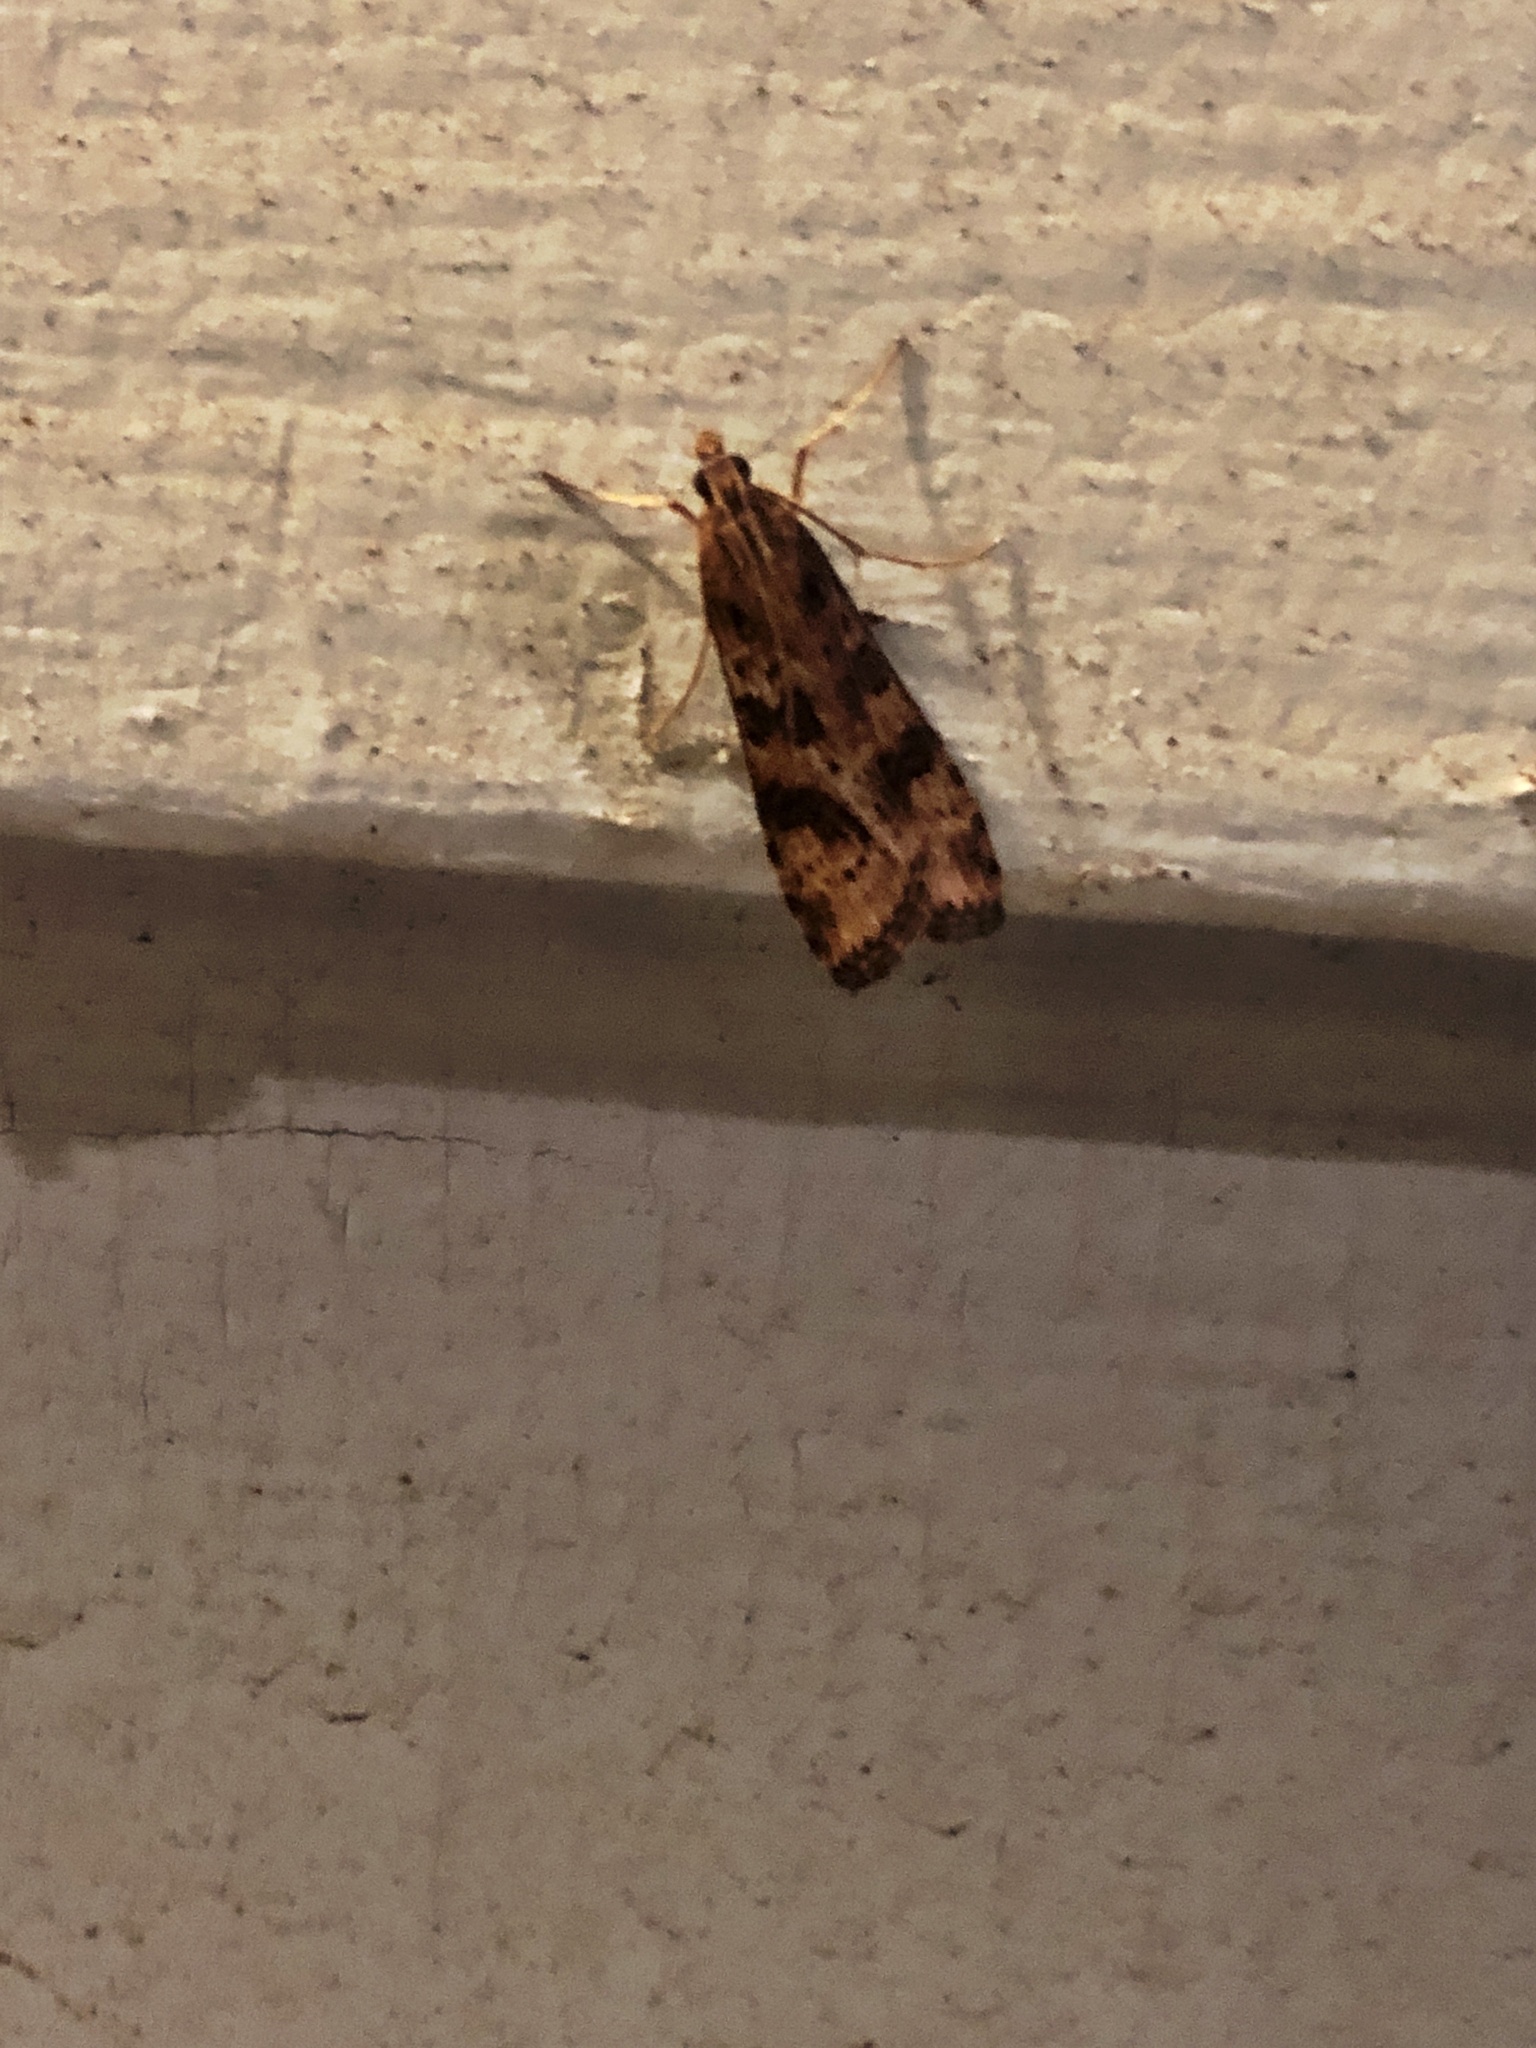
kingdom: Animalia
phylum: Arthropoda
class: Insecta
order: Lepidoptera
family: Crambidae
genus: Nomophila
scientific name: Nomophila nearctica
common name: American rush veneer
